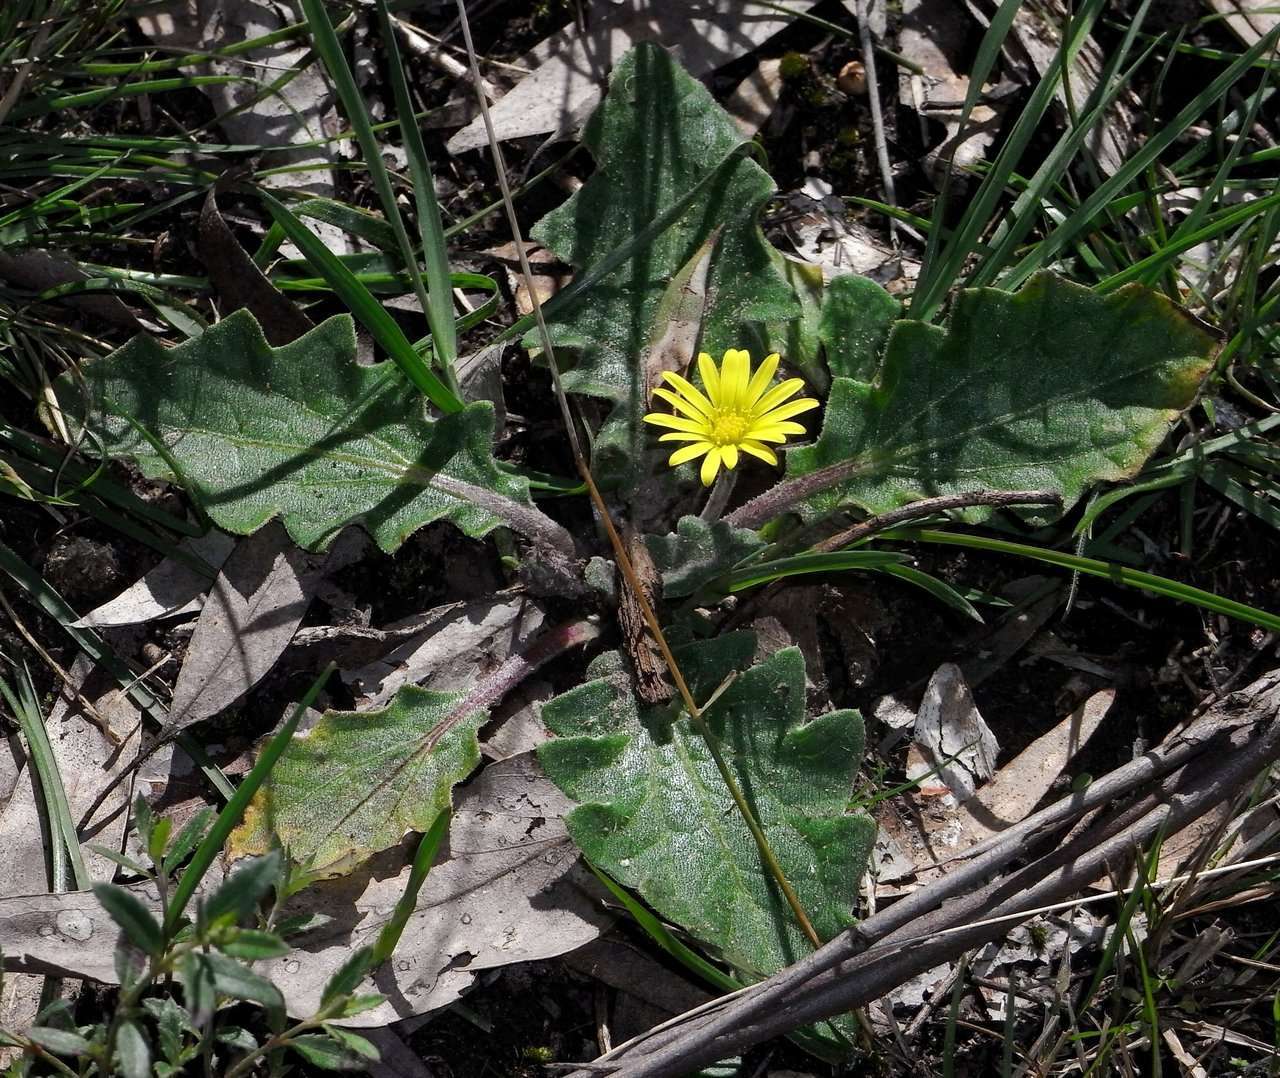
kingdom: Plantae
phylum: Tracheophyta
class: Magnoliopsida
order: Asterales
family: Asteraceae
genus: Cymbonotus
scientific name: Cymbonotus preissianus
